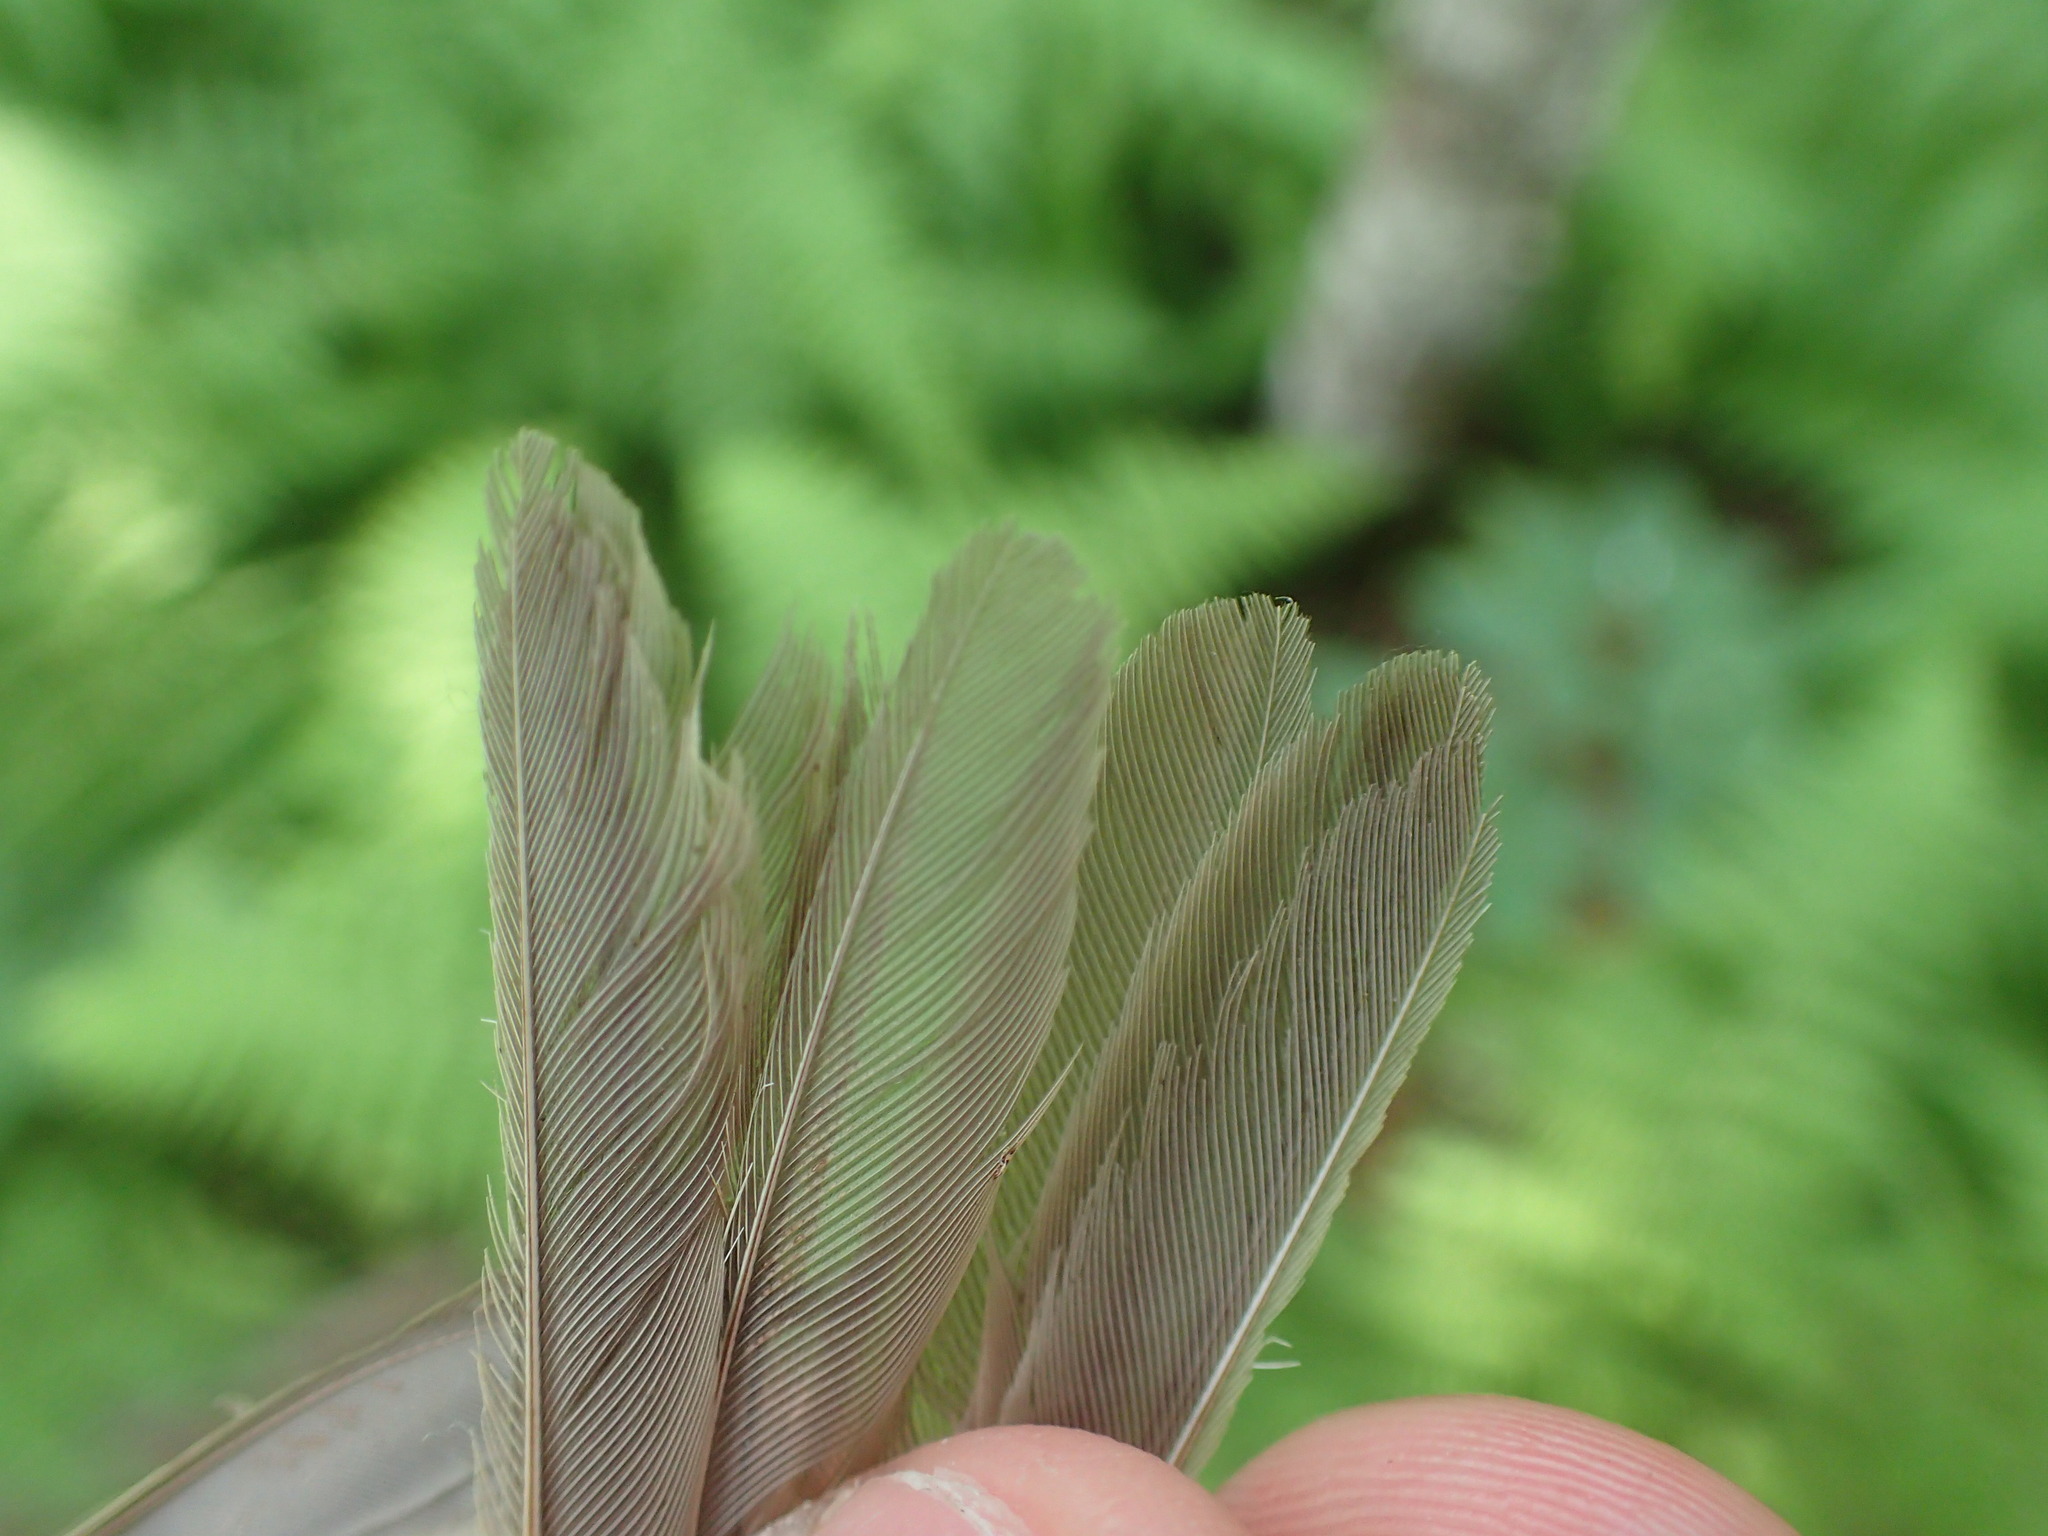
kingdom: Animalia
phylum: Chordata
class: Aves
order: Passeriformes
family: Tyrannidae
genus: Empidonax
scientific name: Empidonax minimus
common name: Least flycatcher
